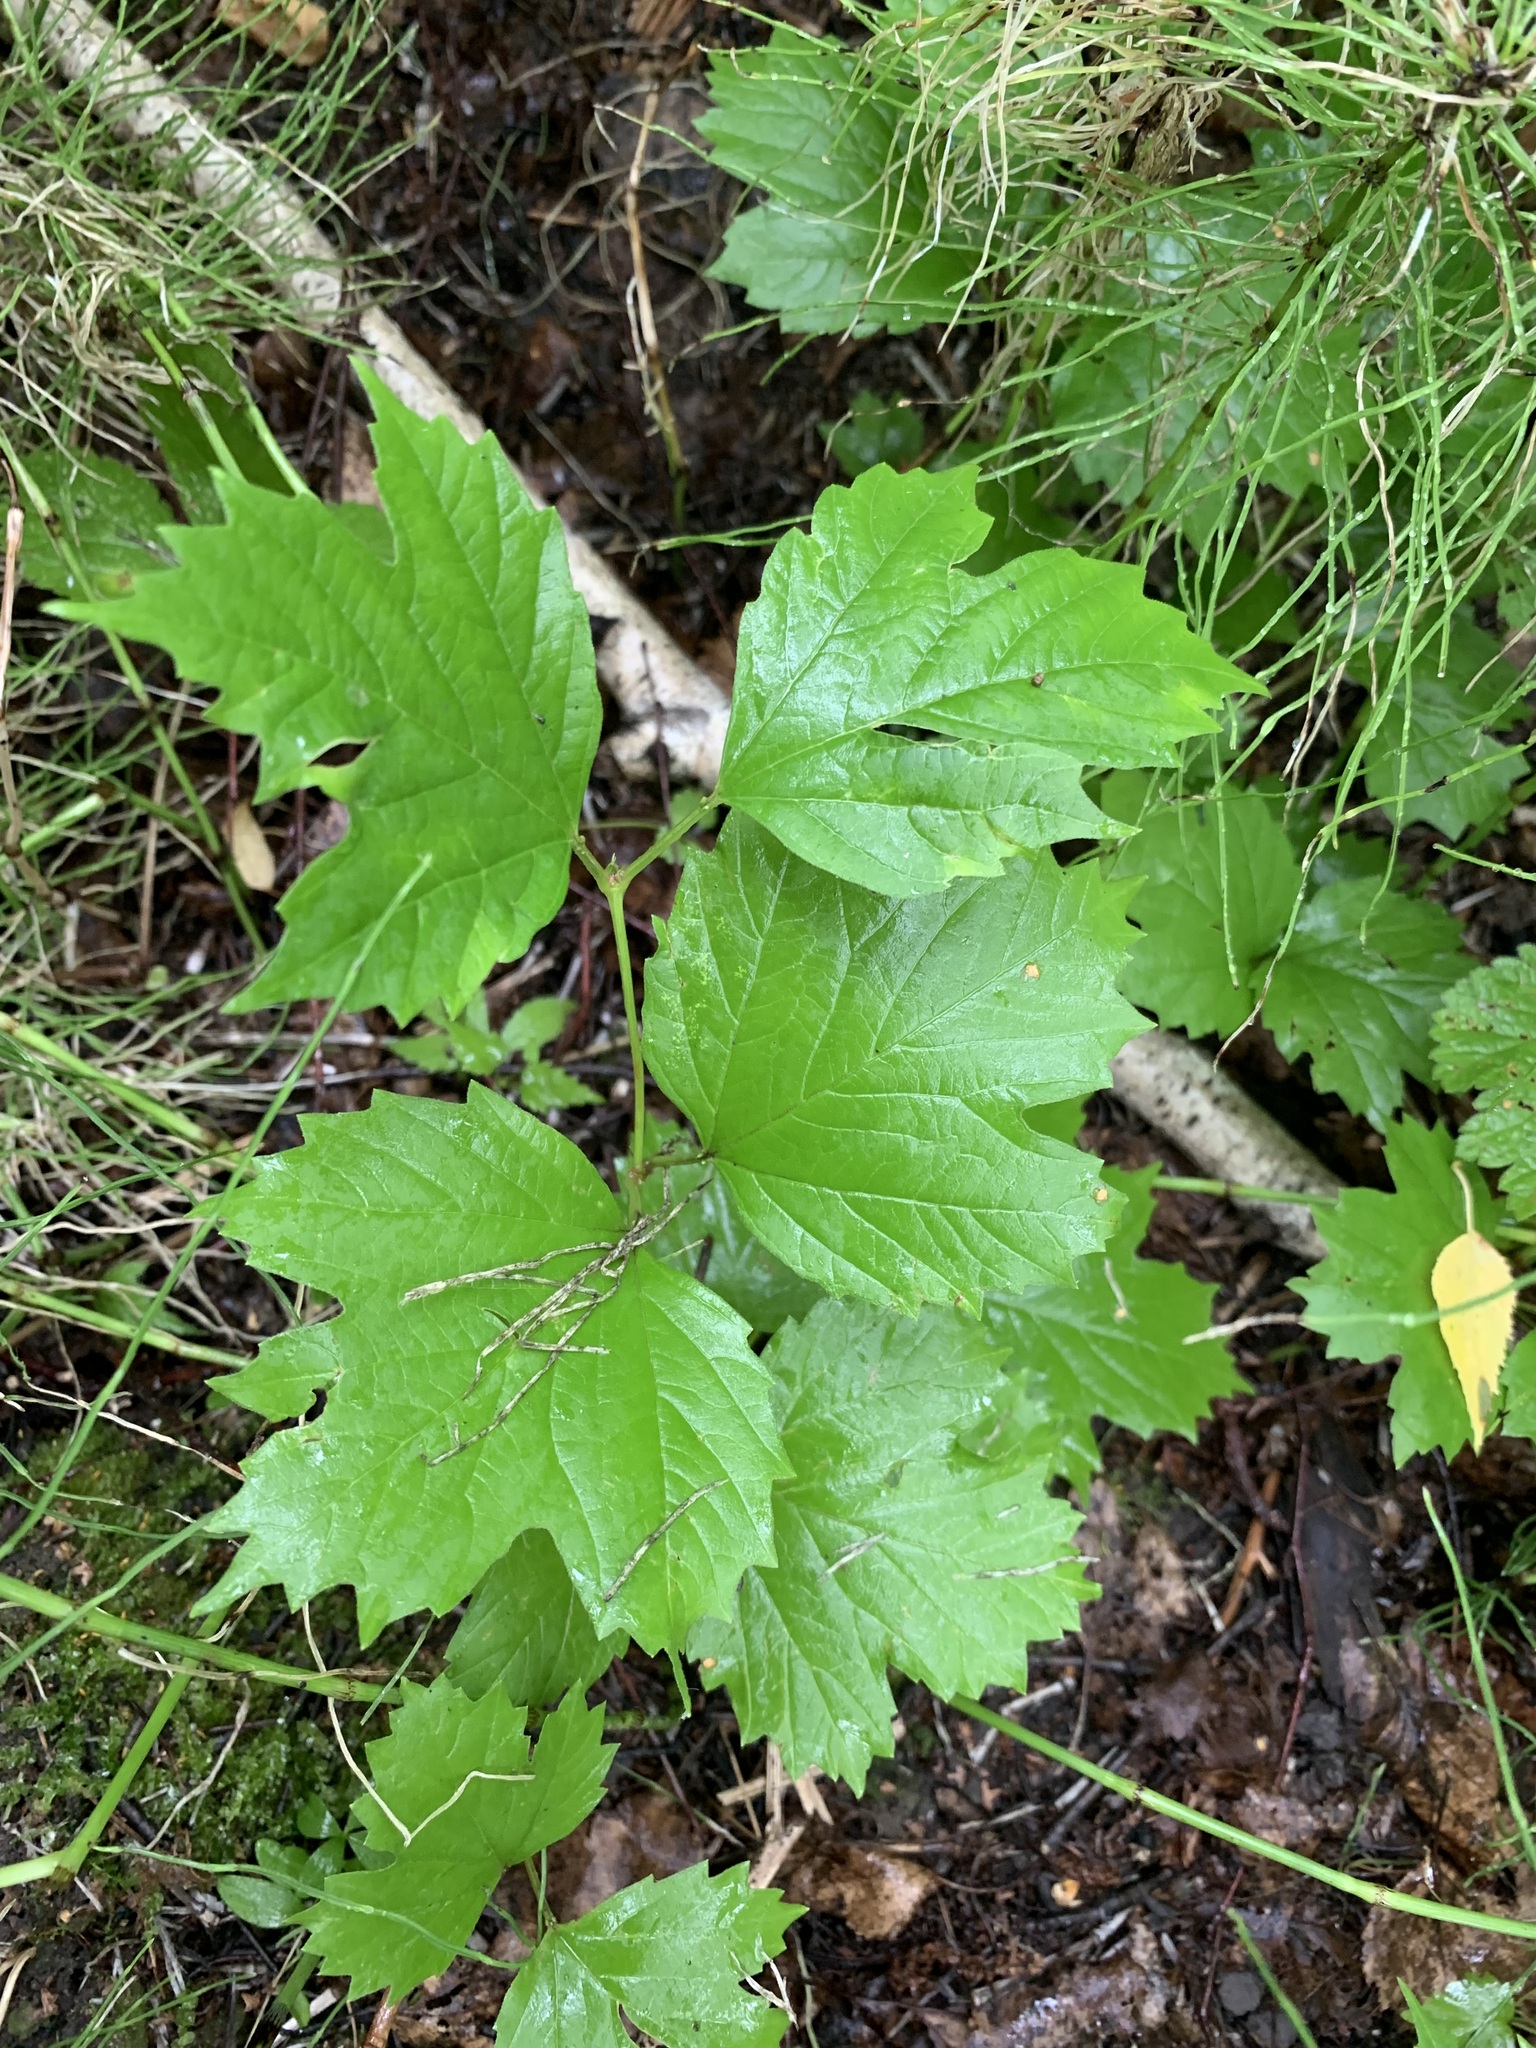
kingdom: Plantae
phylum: Tracheophyta
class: Magnoliopsida
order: Dipsacales
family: Viburnaceae
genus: Viburnum
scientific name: Viburnum opulus
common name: Guelder-rose
